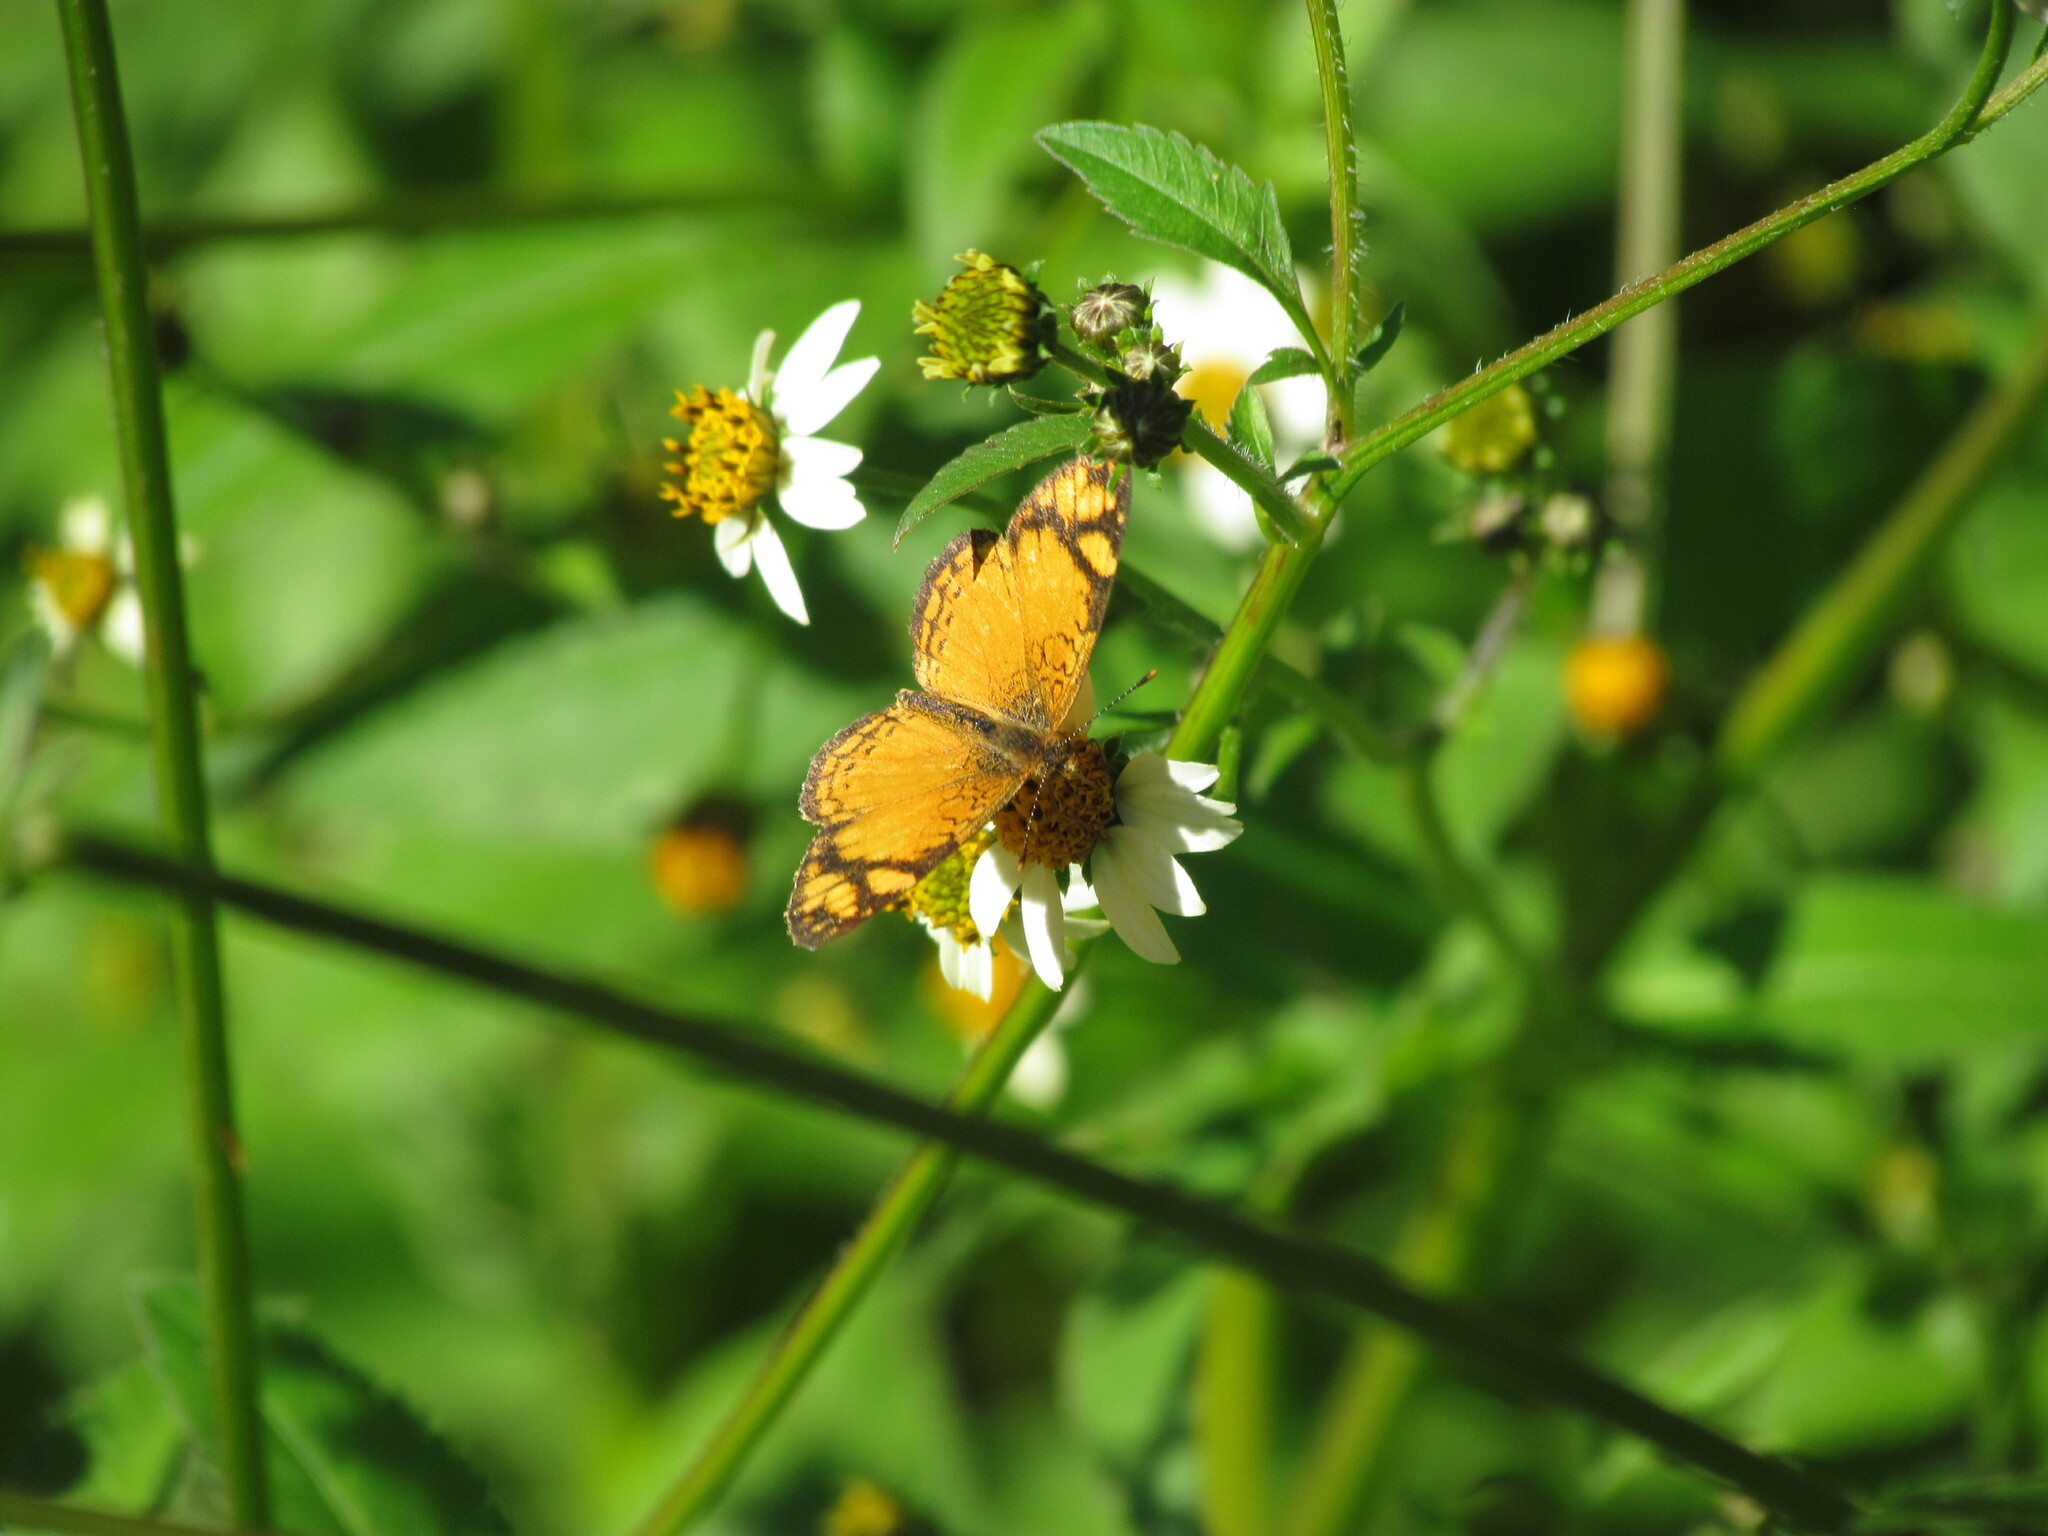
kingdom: Animalia
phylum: Arthropoda
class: Insecta
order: Lepidoptera
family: Nymphalidae
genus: Tegosa
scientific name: Tegosa claudina
